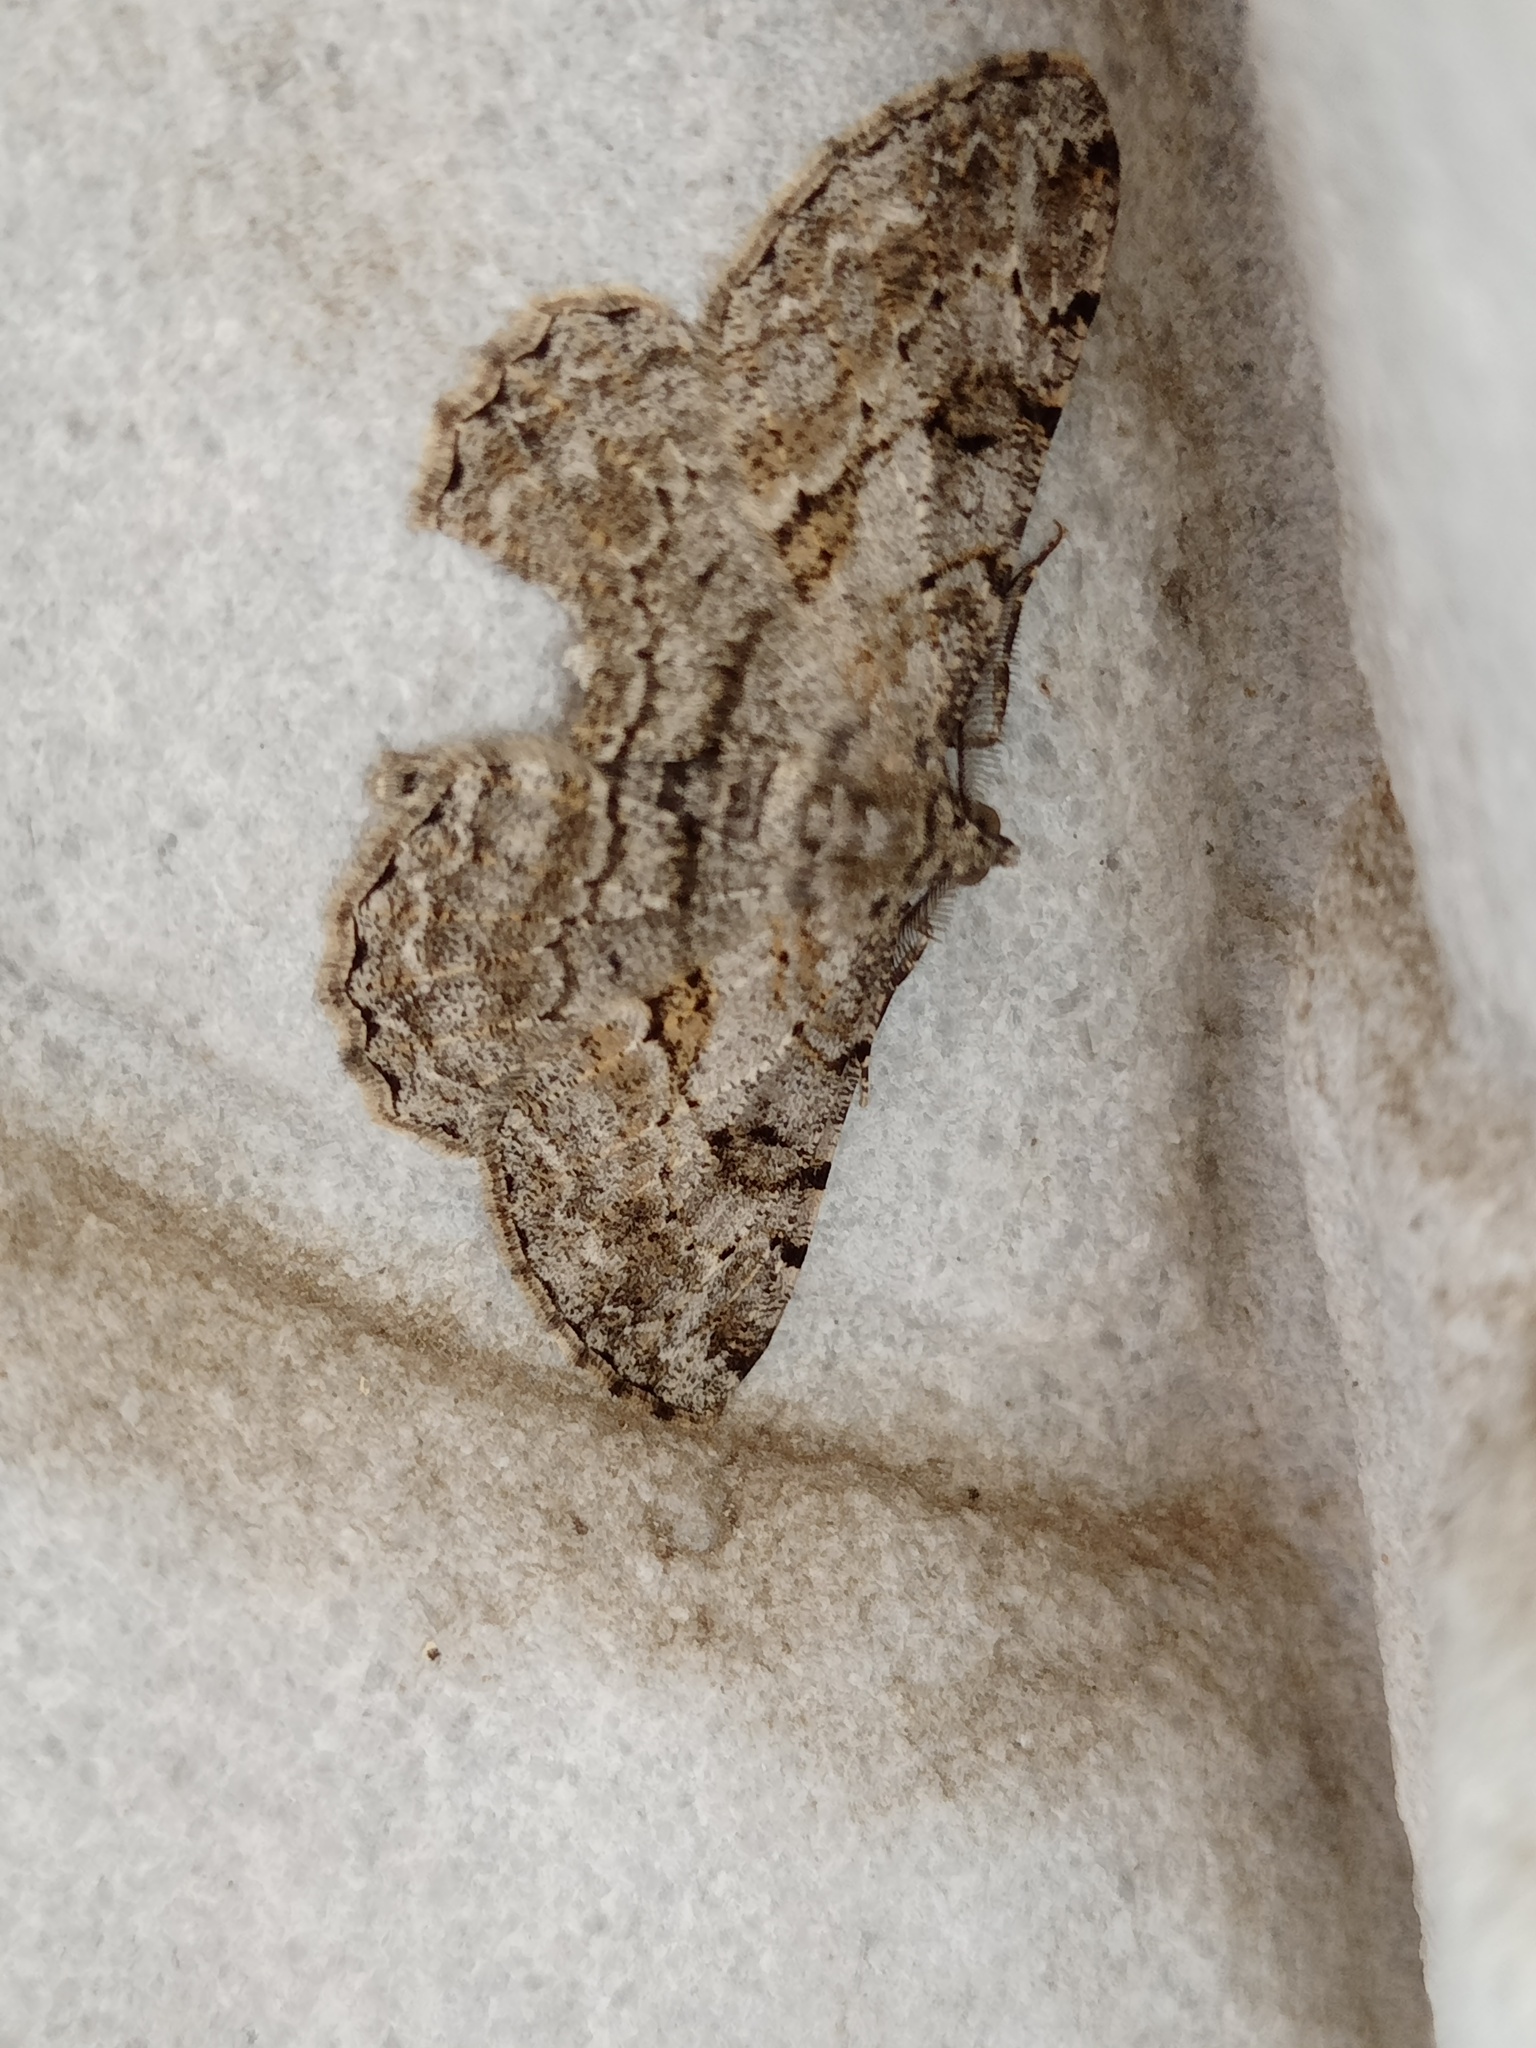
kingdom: Animalia
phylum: Arthropoda
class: Insecta
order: Lepidoptera
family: Geometridae
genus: Peribatodes
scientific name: Peribatodes rhomboidaria
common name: Willow beauty
